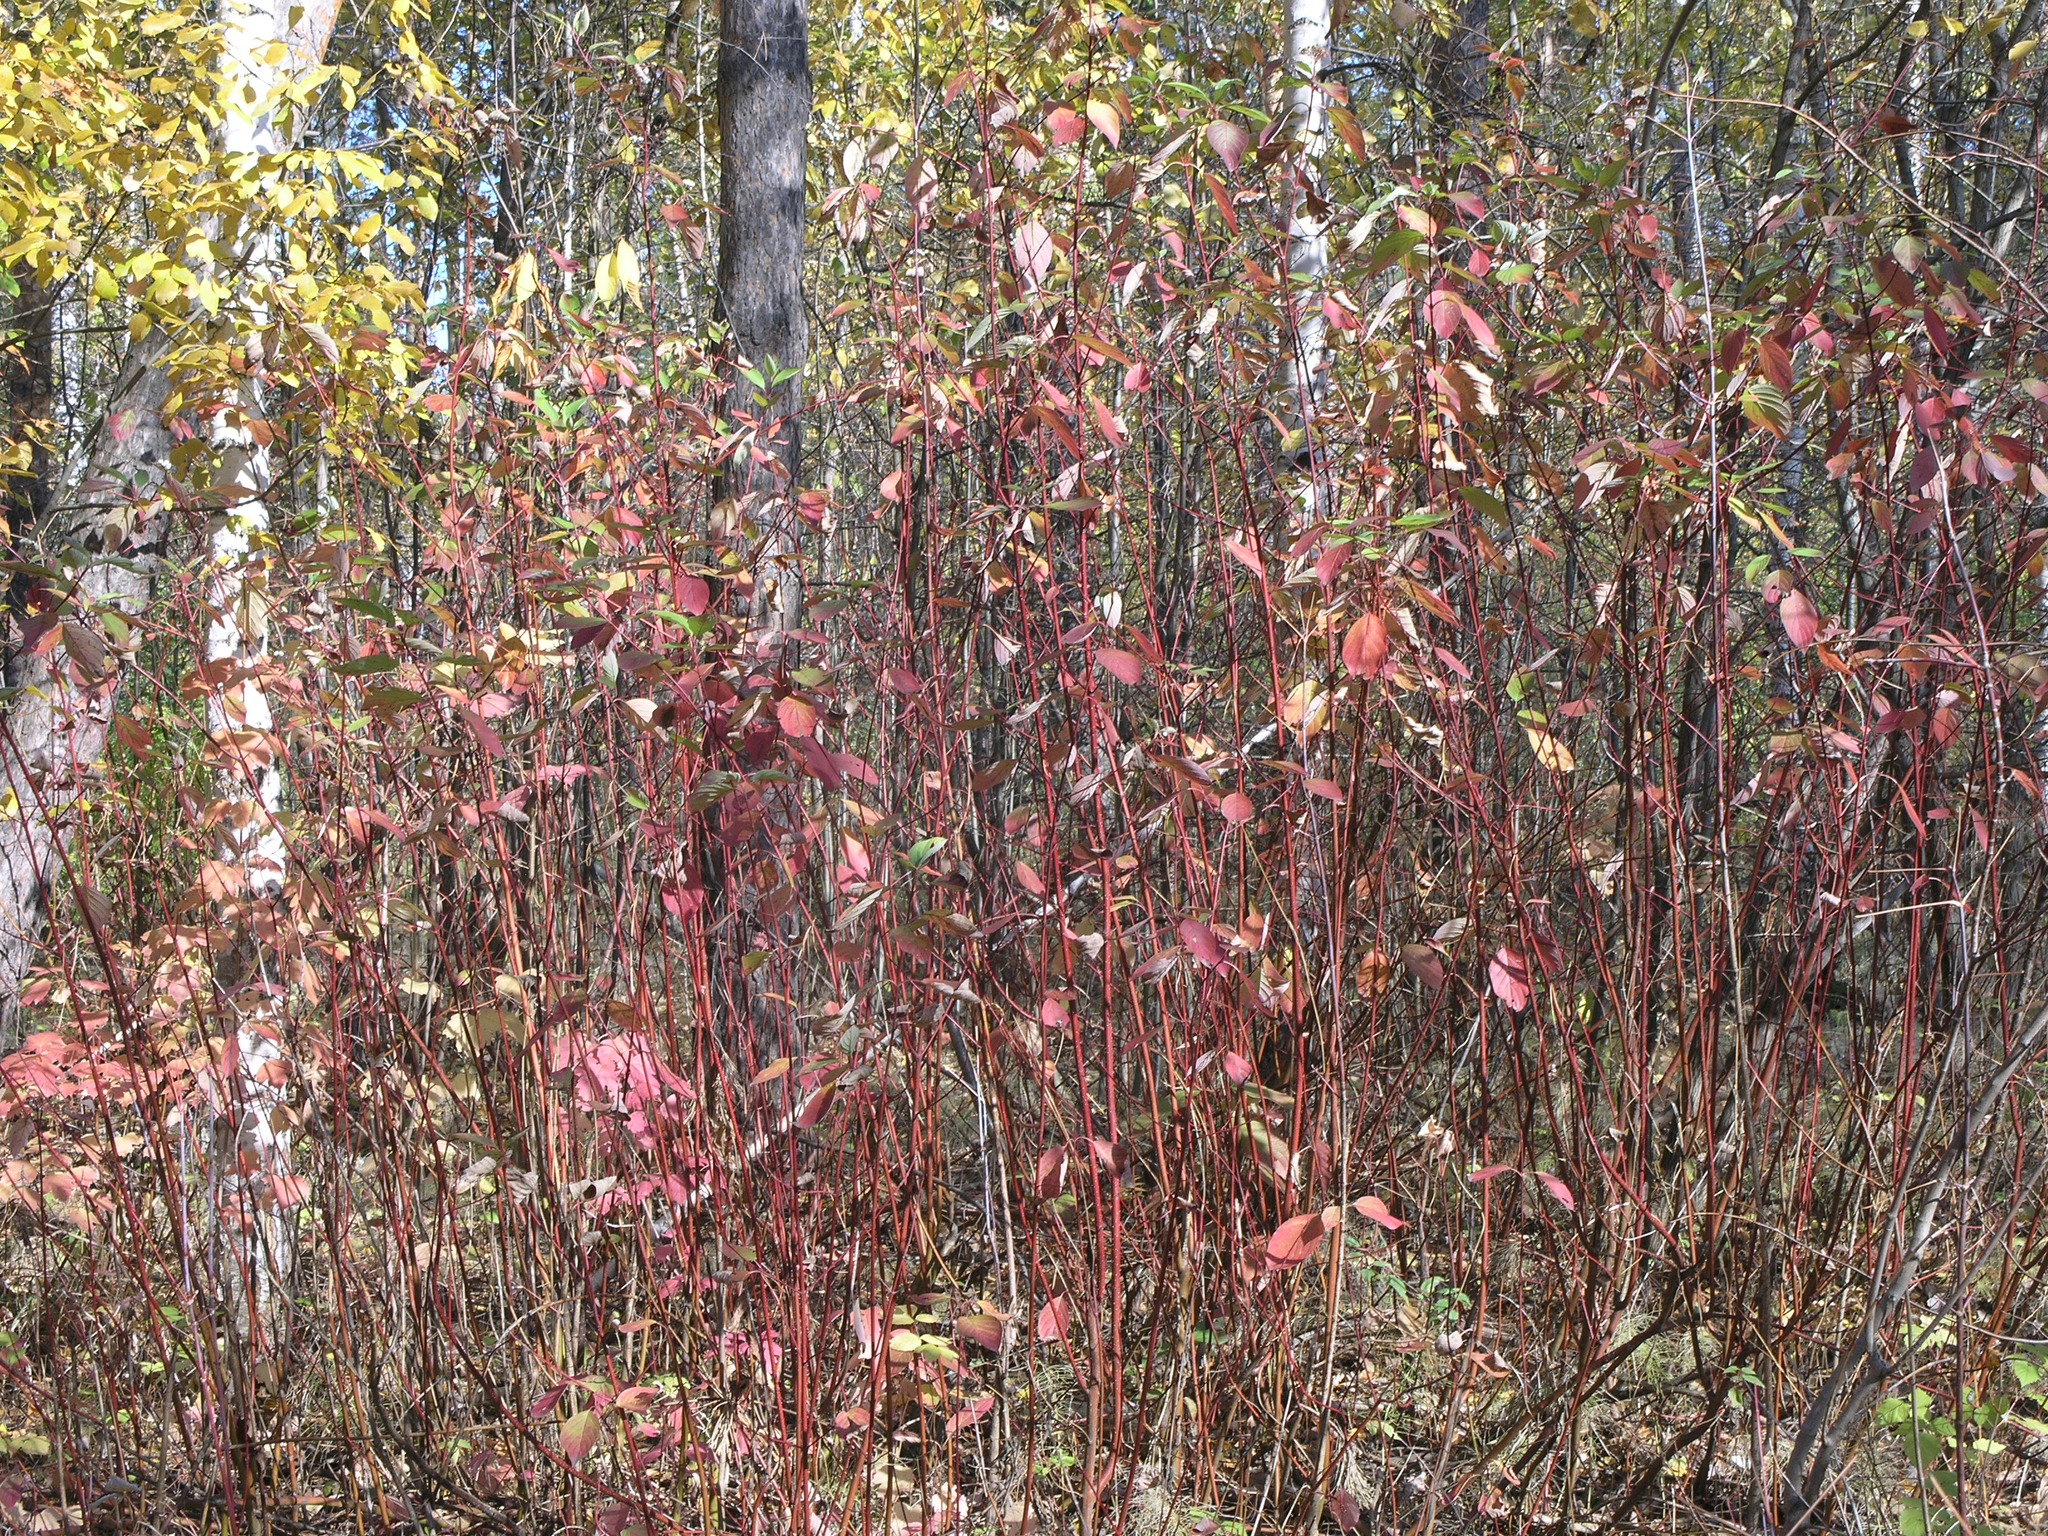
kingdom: Plantae
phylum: Tracheophyta
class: Magnoliopsida
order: Cornales
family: Cornaceae
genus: Cornus
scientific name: Cornus alba
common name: White dogwood
